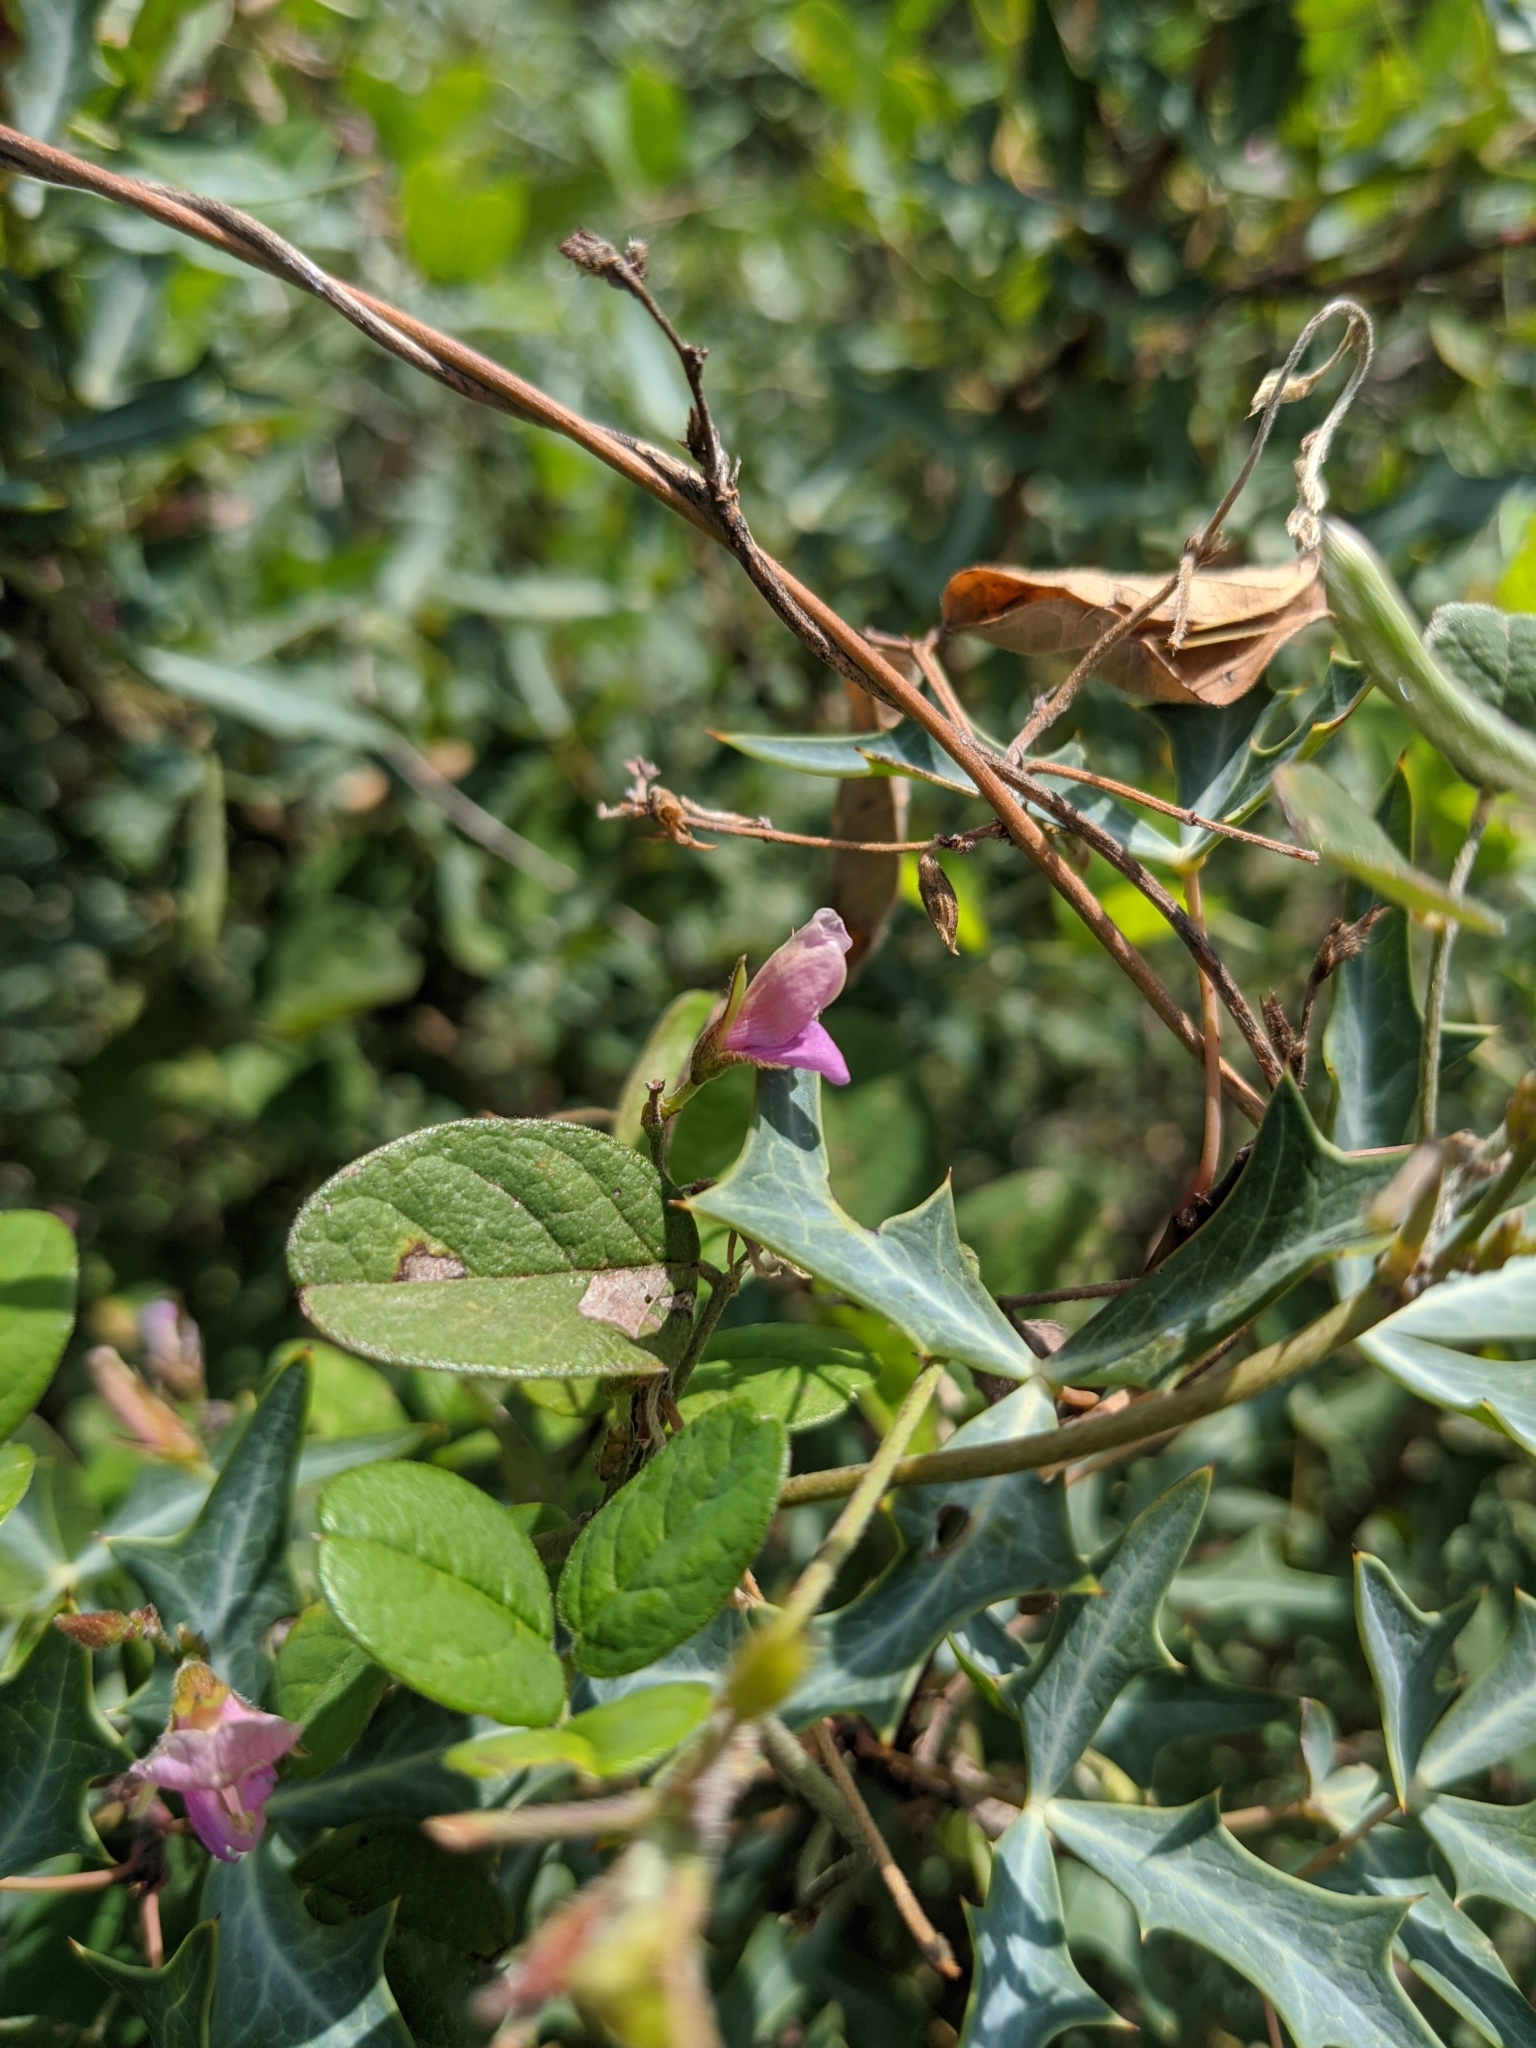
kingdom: Plantae
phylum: Tracheophyta
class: Magnoliopsida
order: Fabales
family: Fabaceae
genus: Galactia
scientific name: Galactia canescens
